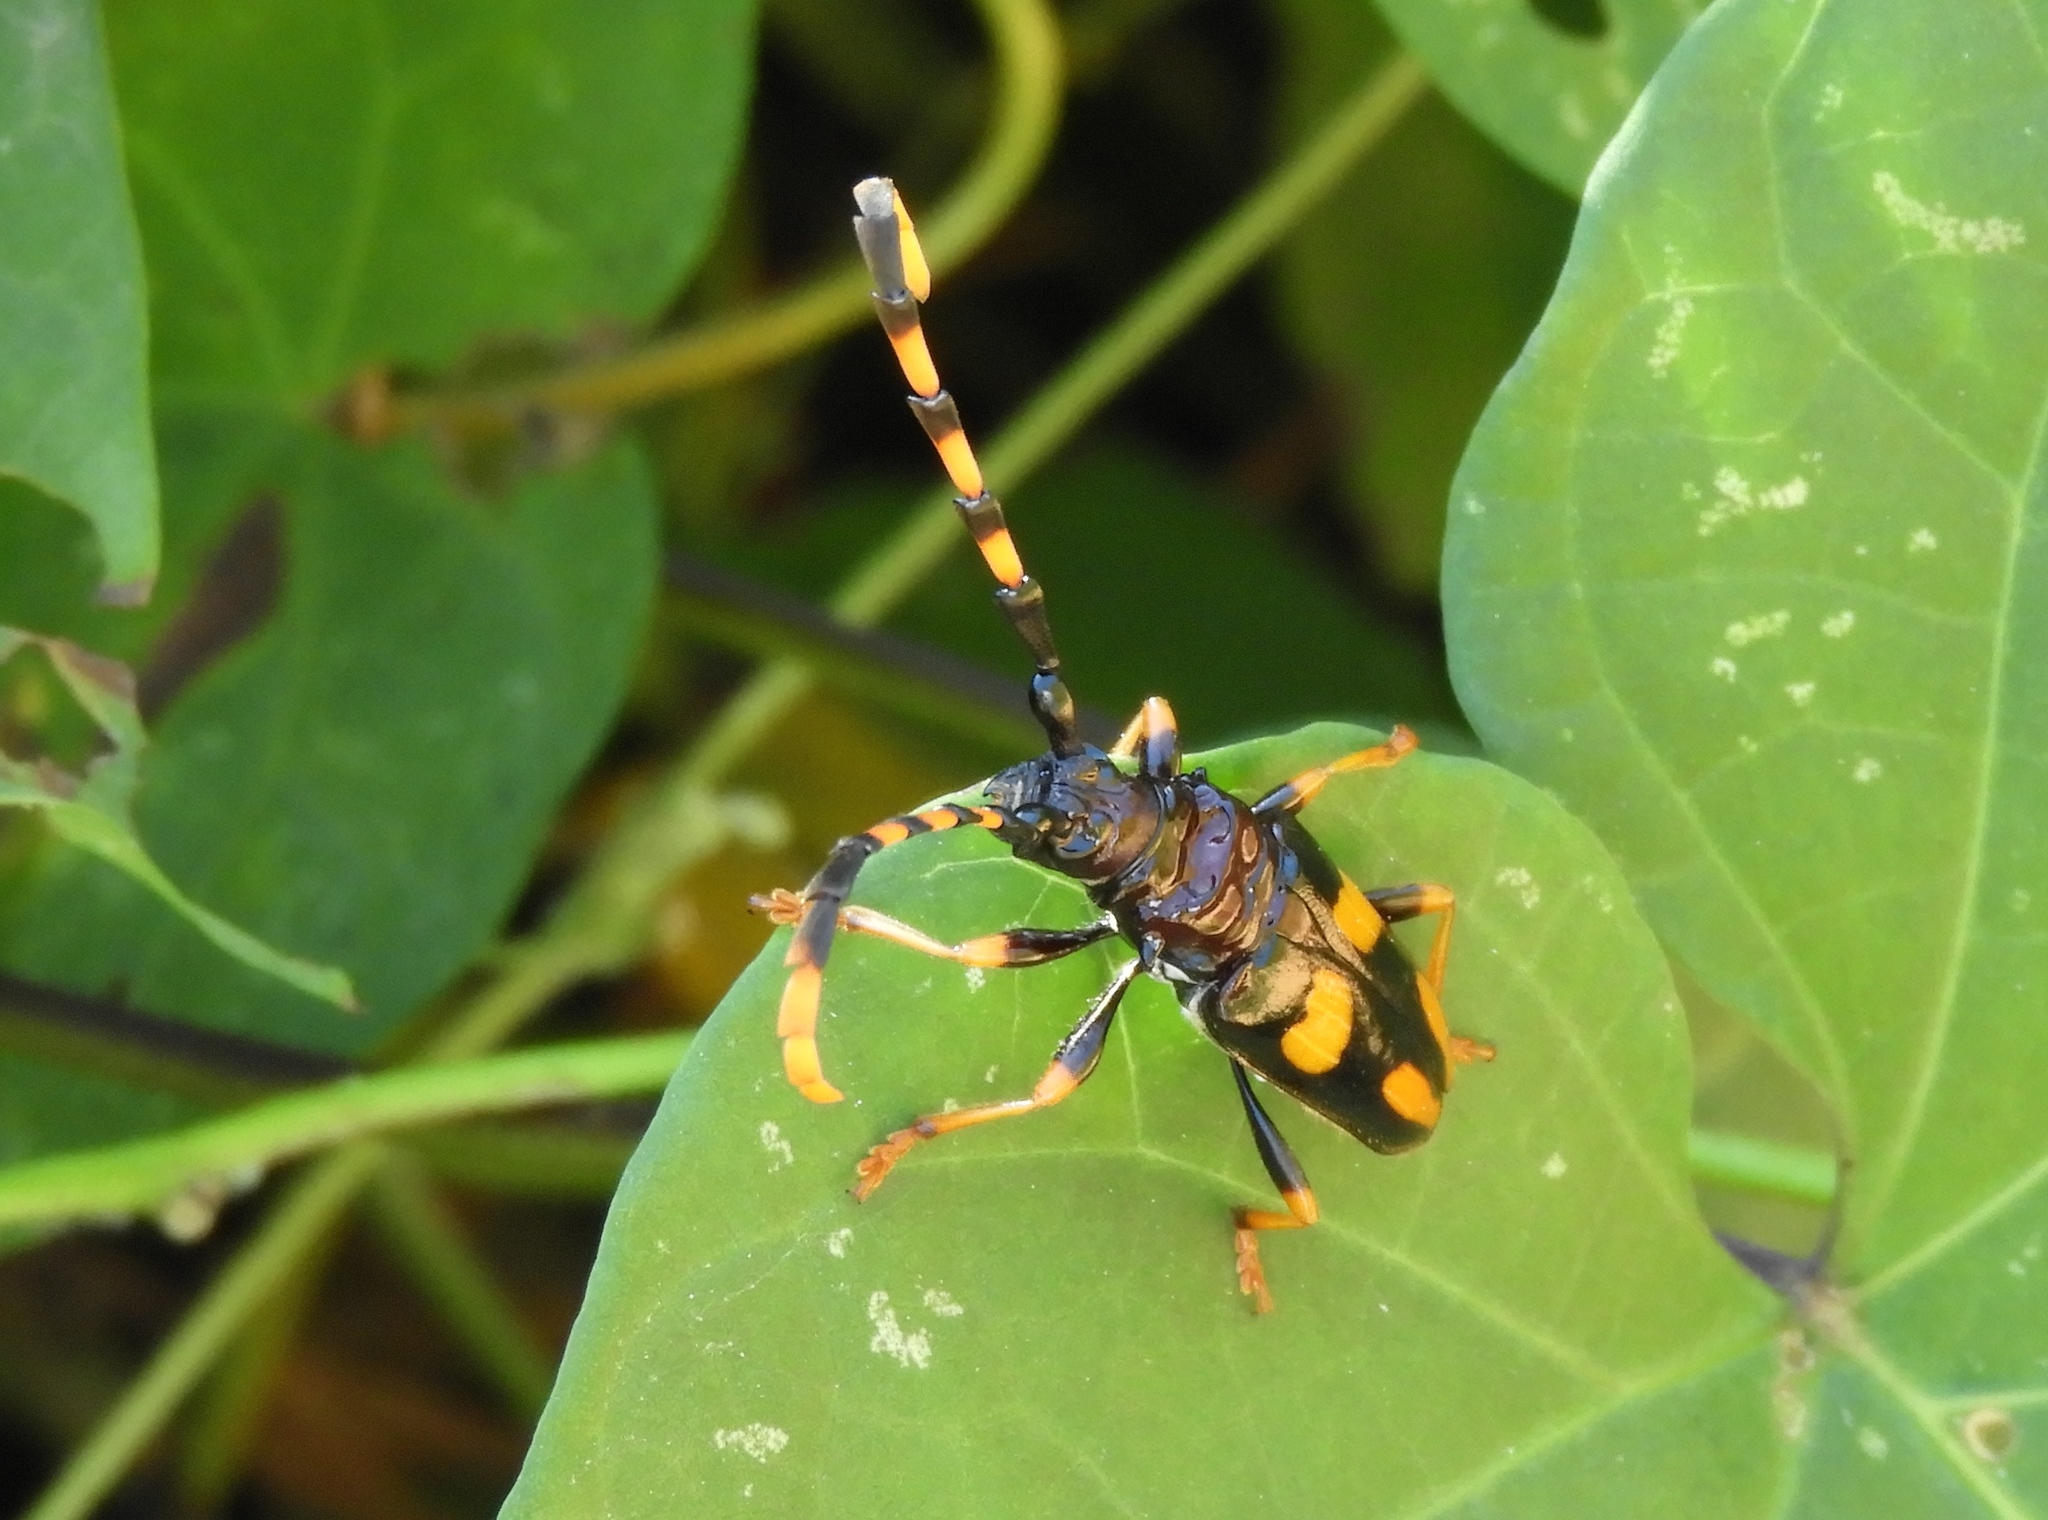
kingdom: Animalia
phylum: Arthropoda
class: Insecta
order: Coleoptera
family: Cerambycidae
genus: Trachyderes
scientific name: Trachyderes mandibularis
